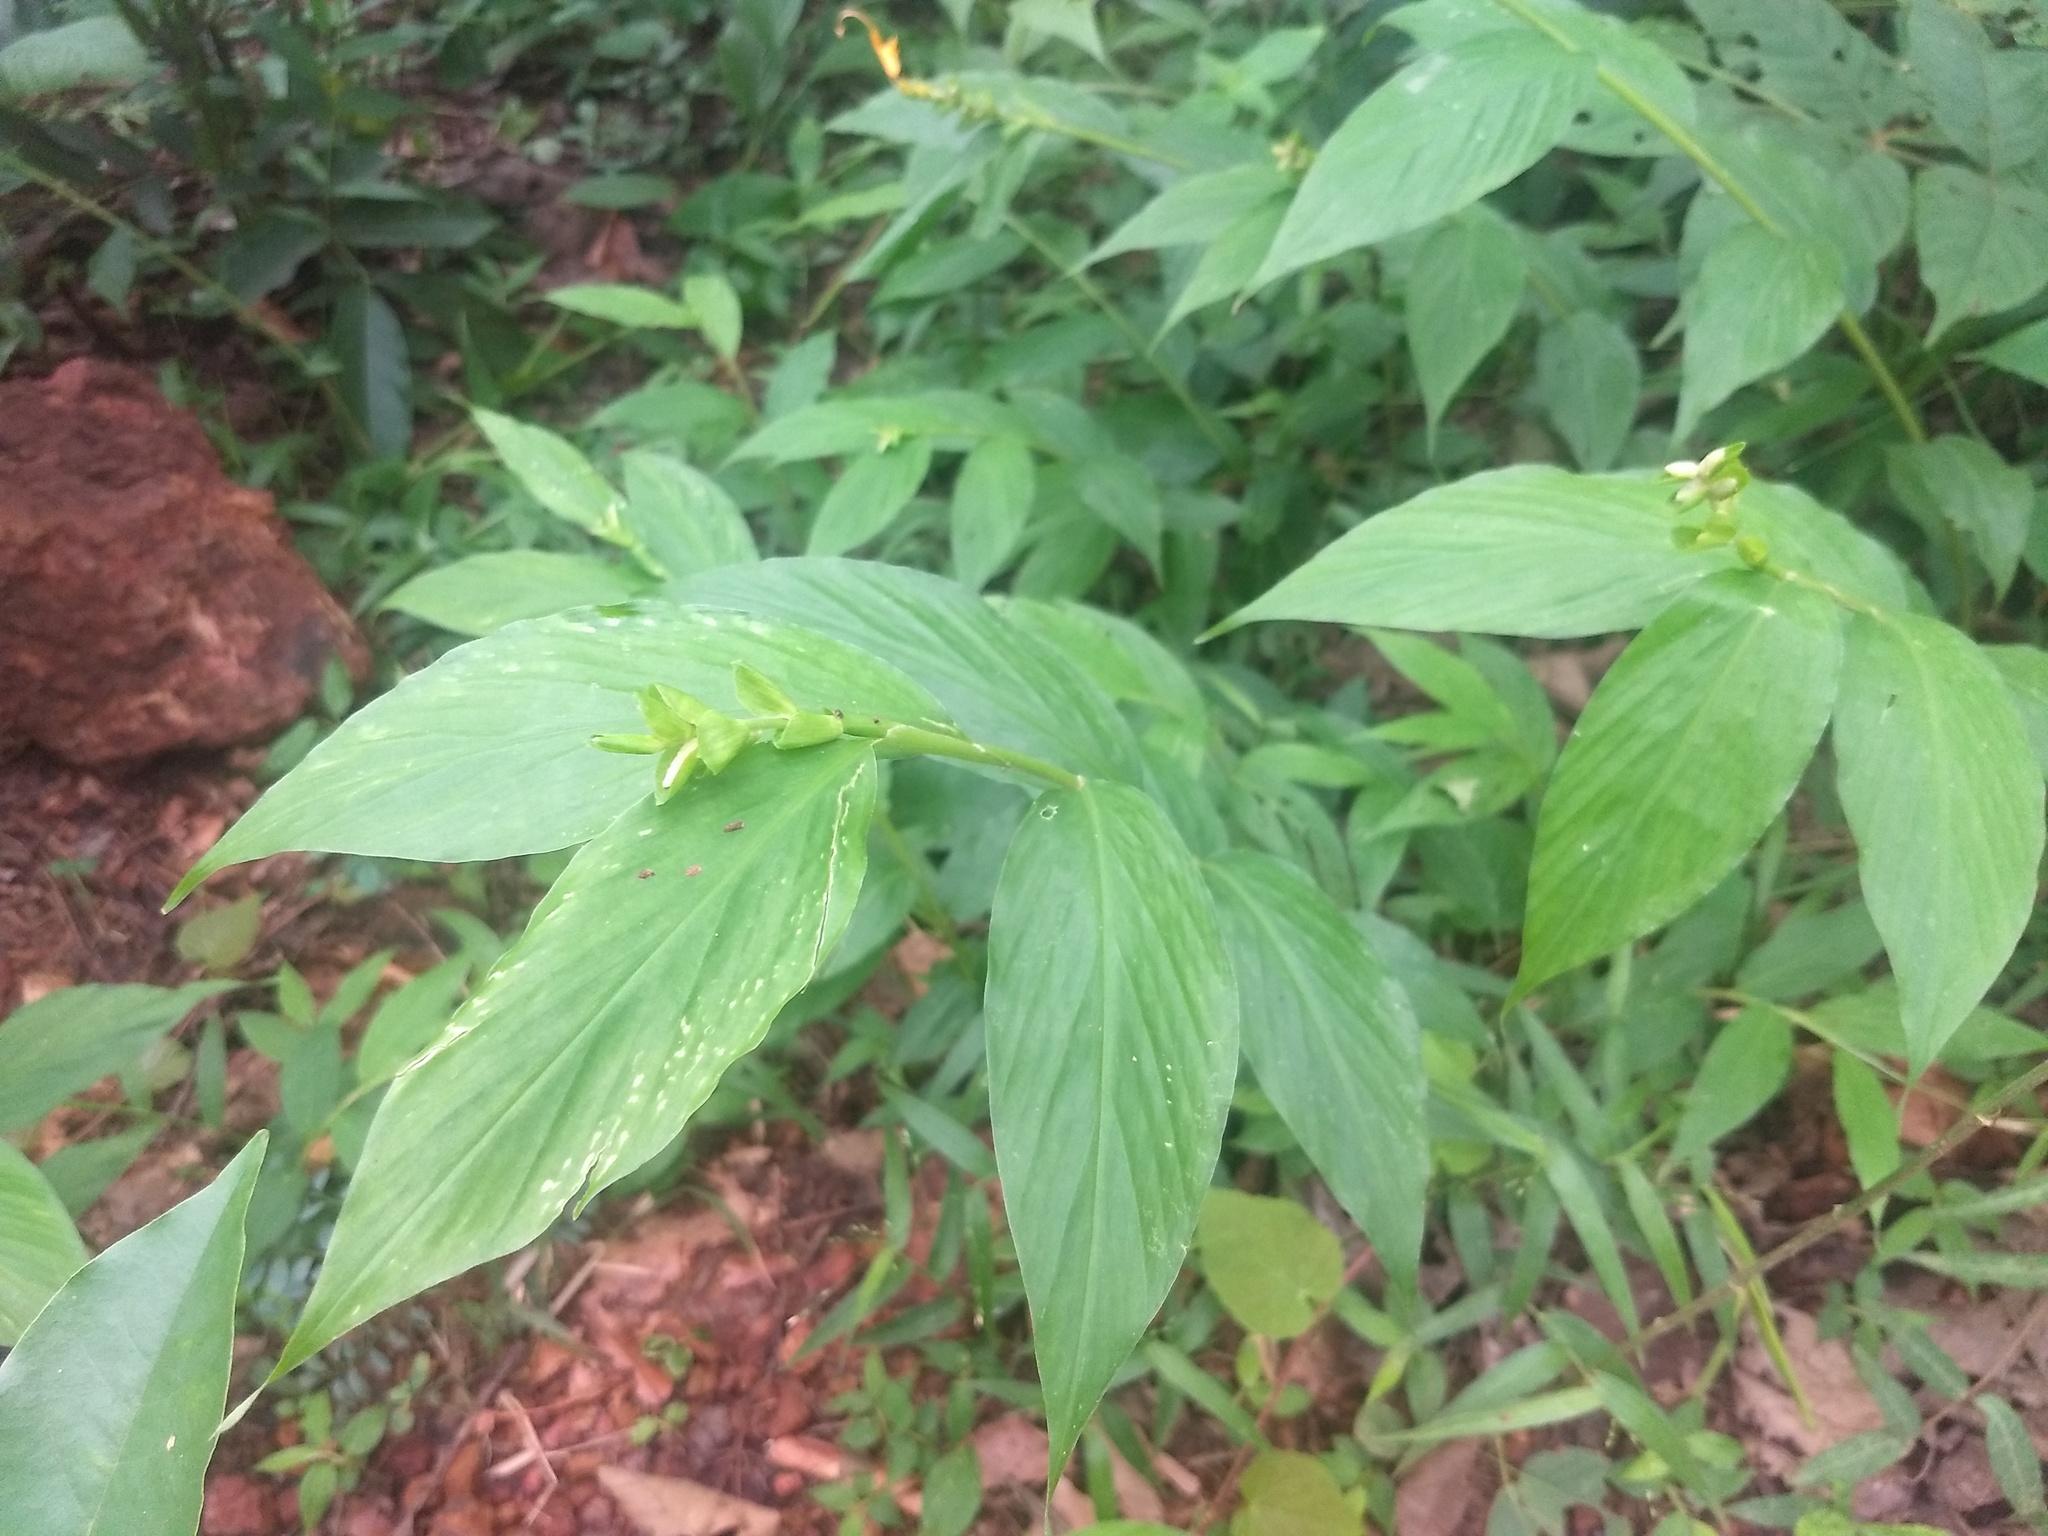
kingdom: Plantae
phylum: Tracheophyta
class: Liliopsida
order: Zingiberales
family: Zingiberaceae
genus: Globba
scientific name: Globba marantina
